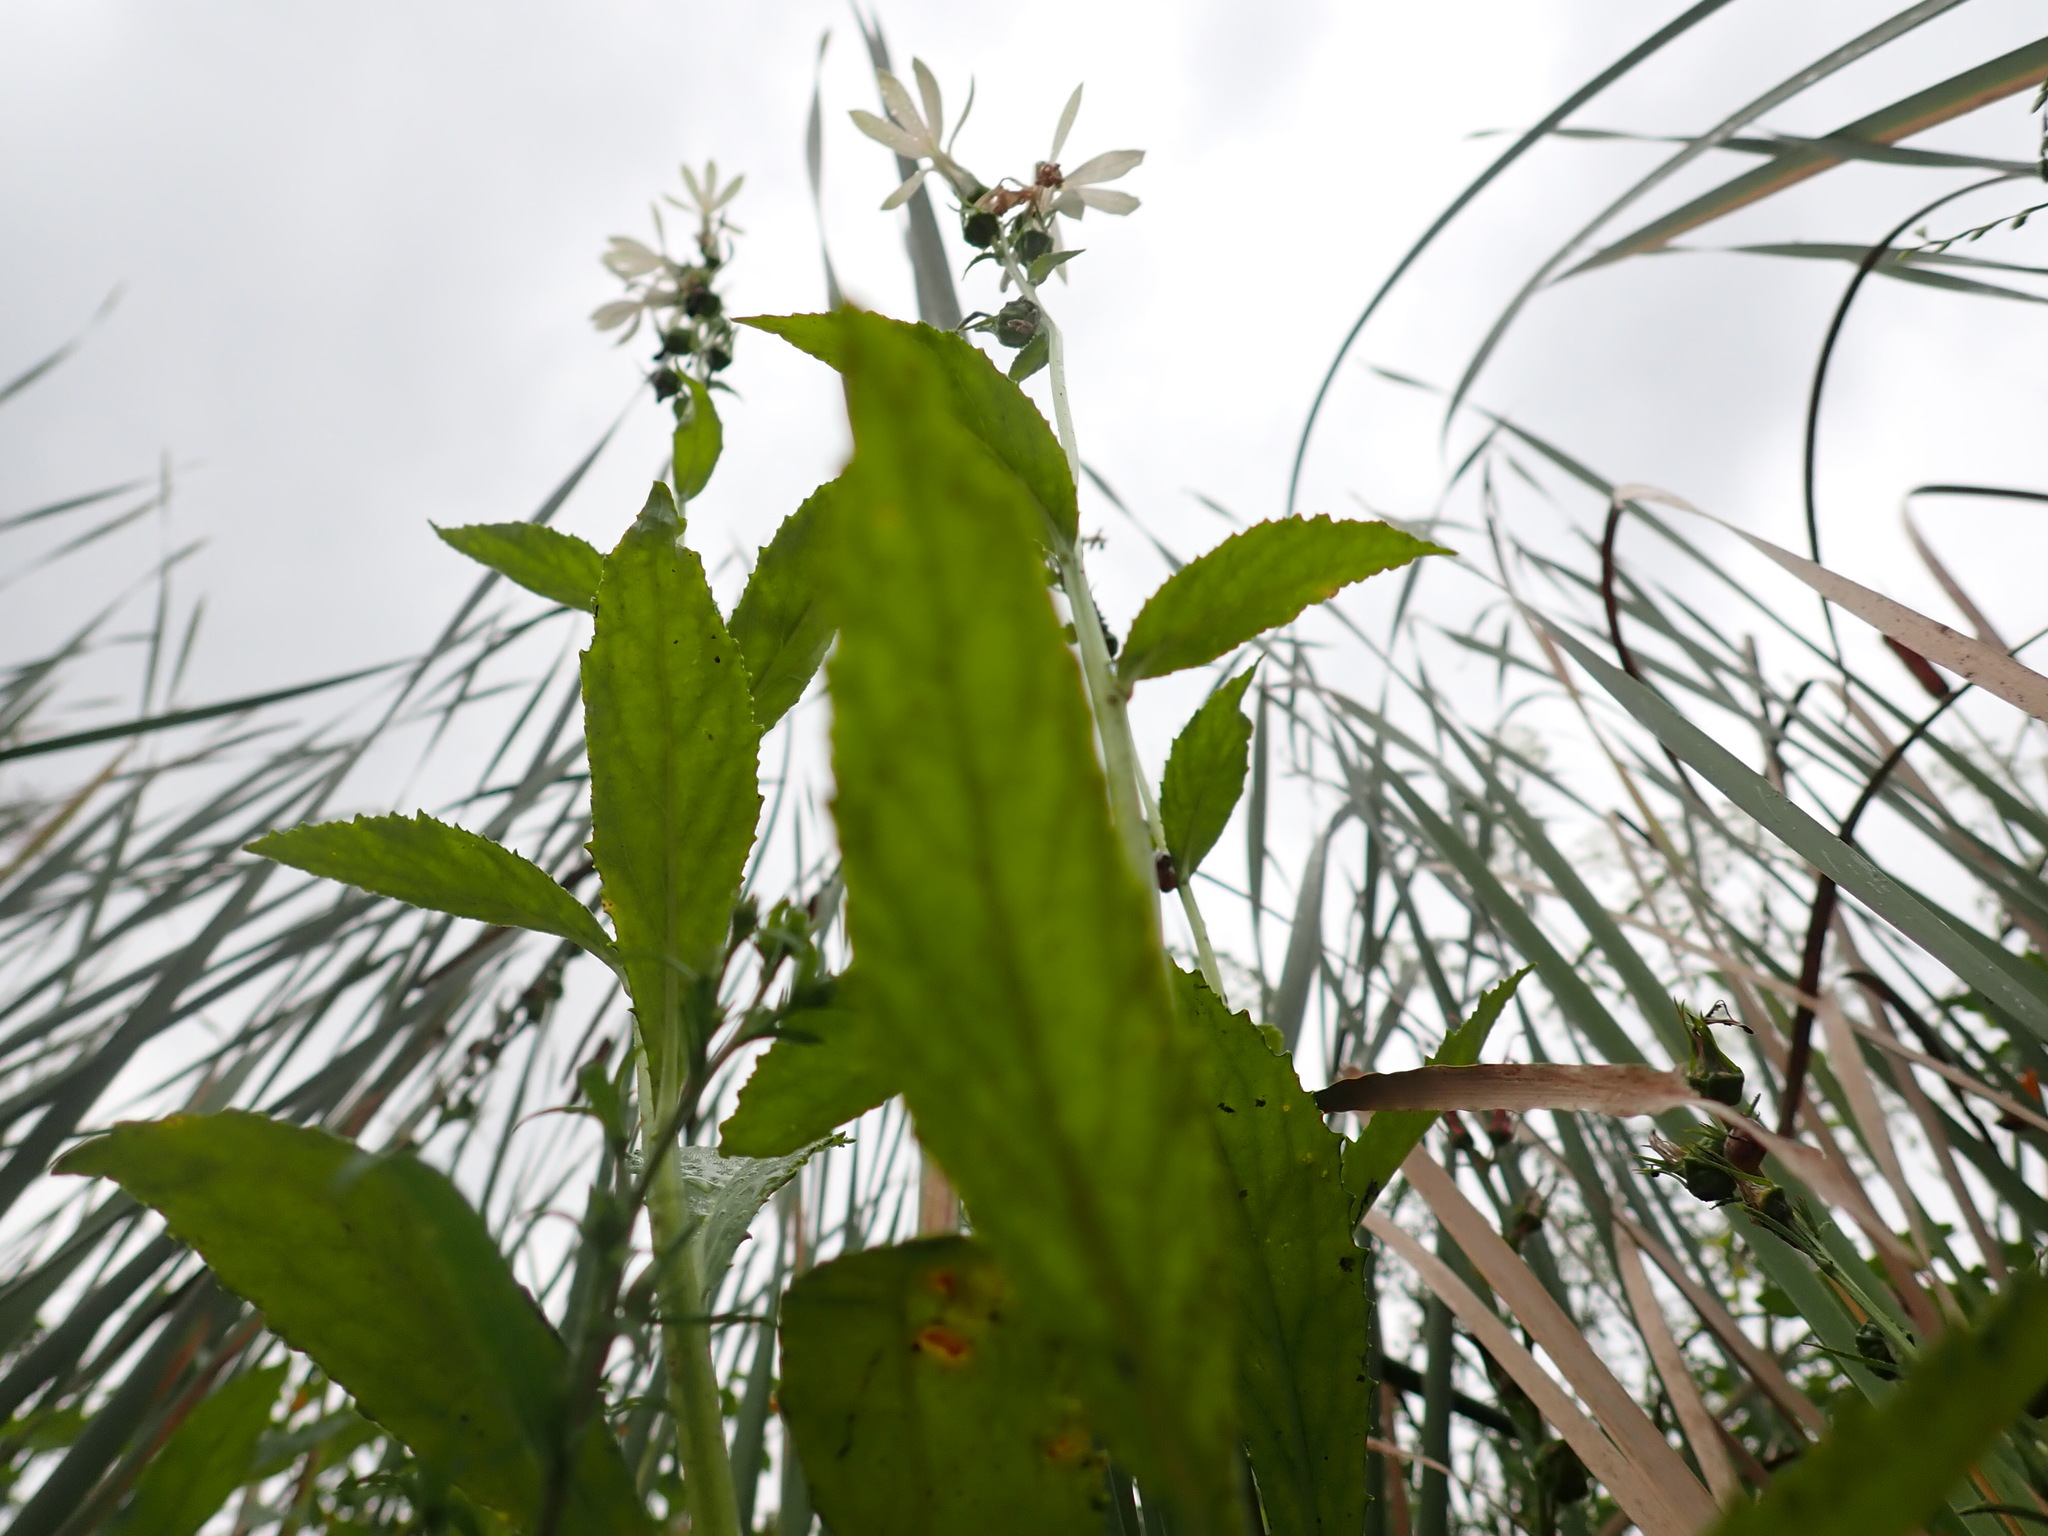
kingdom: Plantae
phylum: Tracheophyta
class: Magnoliopsida
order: Asterales
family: Campanulaceae
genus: Lobelia
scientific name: Lobelia cardinalis
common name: Cardinal flower
